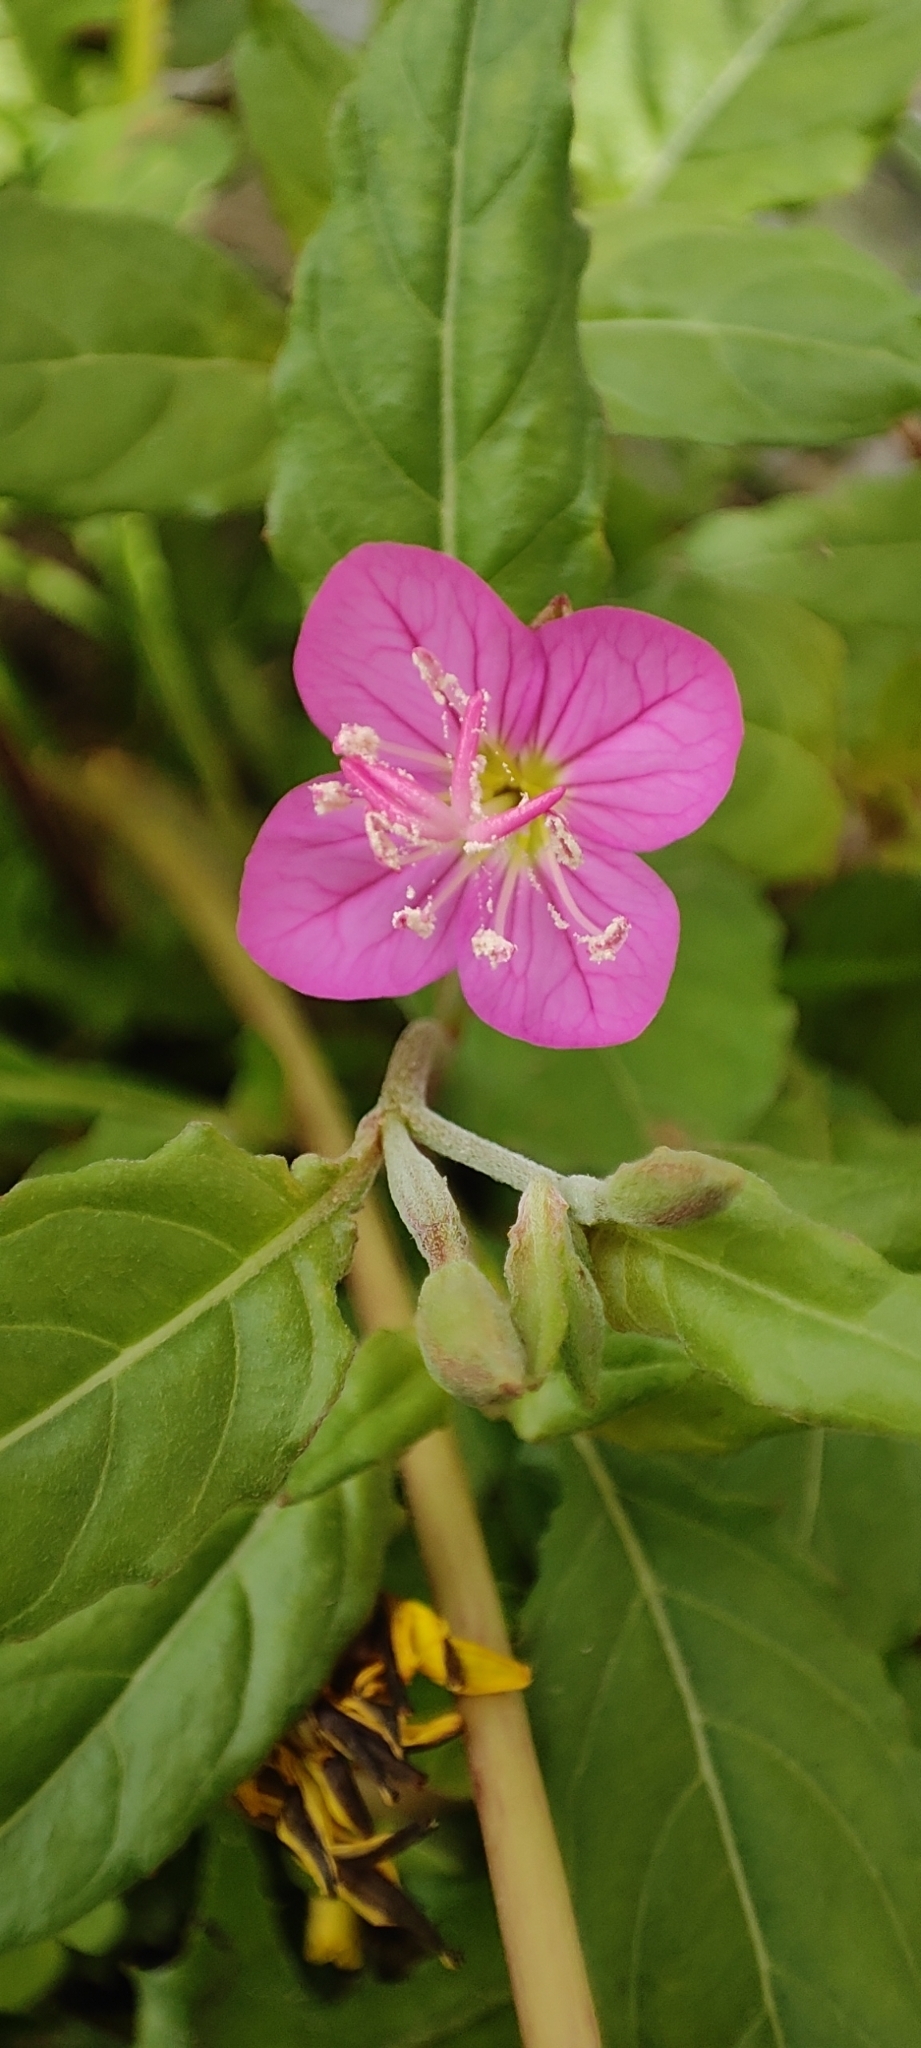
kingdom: Plantae
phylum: Tracheophyta
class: Magnoliopsida
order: Myrtales
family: Onagraceae
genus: Oenothera
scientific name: Oenothera rosea
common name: Rosy evening-primrose
